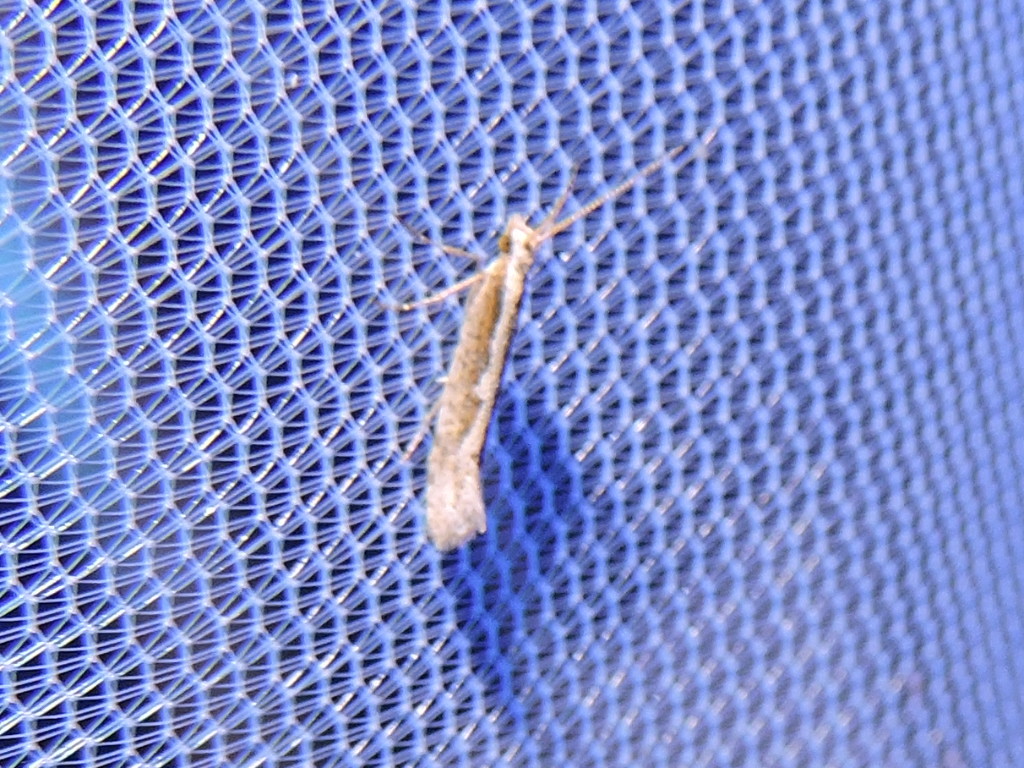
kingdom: Animalia
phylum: Arthropoda
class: Insecta
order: Lepidoptera
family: Plutellidae
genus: Plutella
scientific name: Plutella xylostella
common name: Diamond-back moth
